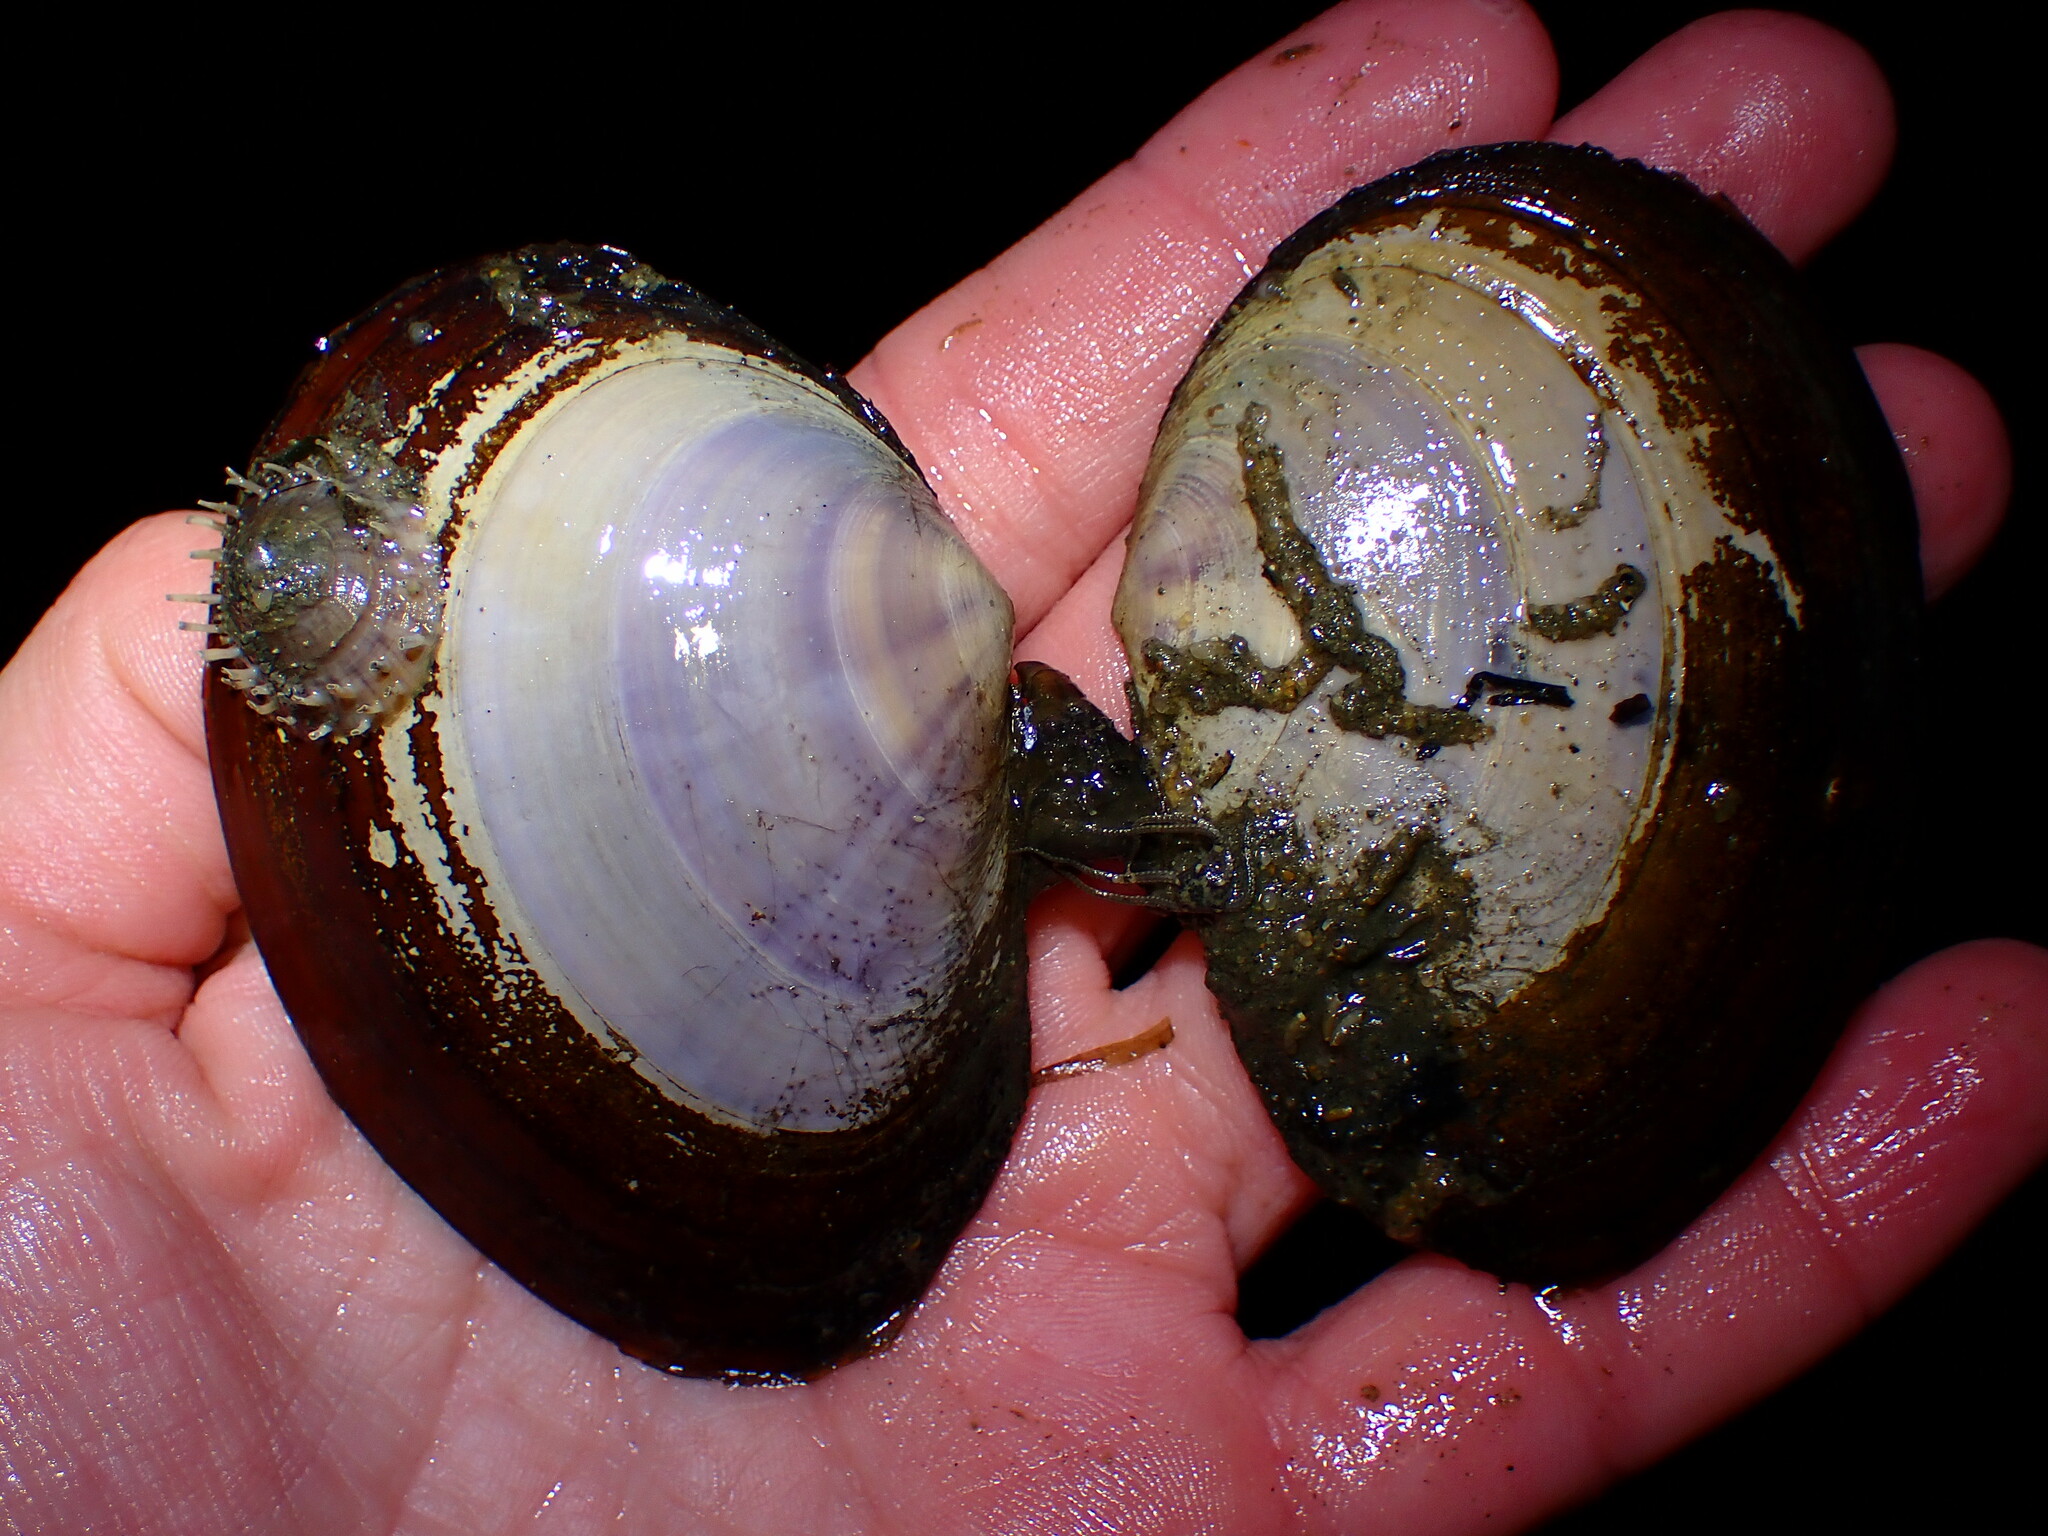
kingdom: Animalia
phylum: Mollusca
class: Bivalvia
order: Cardiida
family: Psammobiidae
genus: Nuttallia
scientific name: Nuttallia nuttallii
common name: California mahogany-clam
